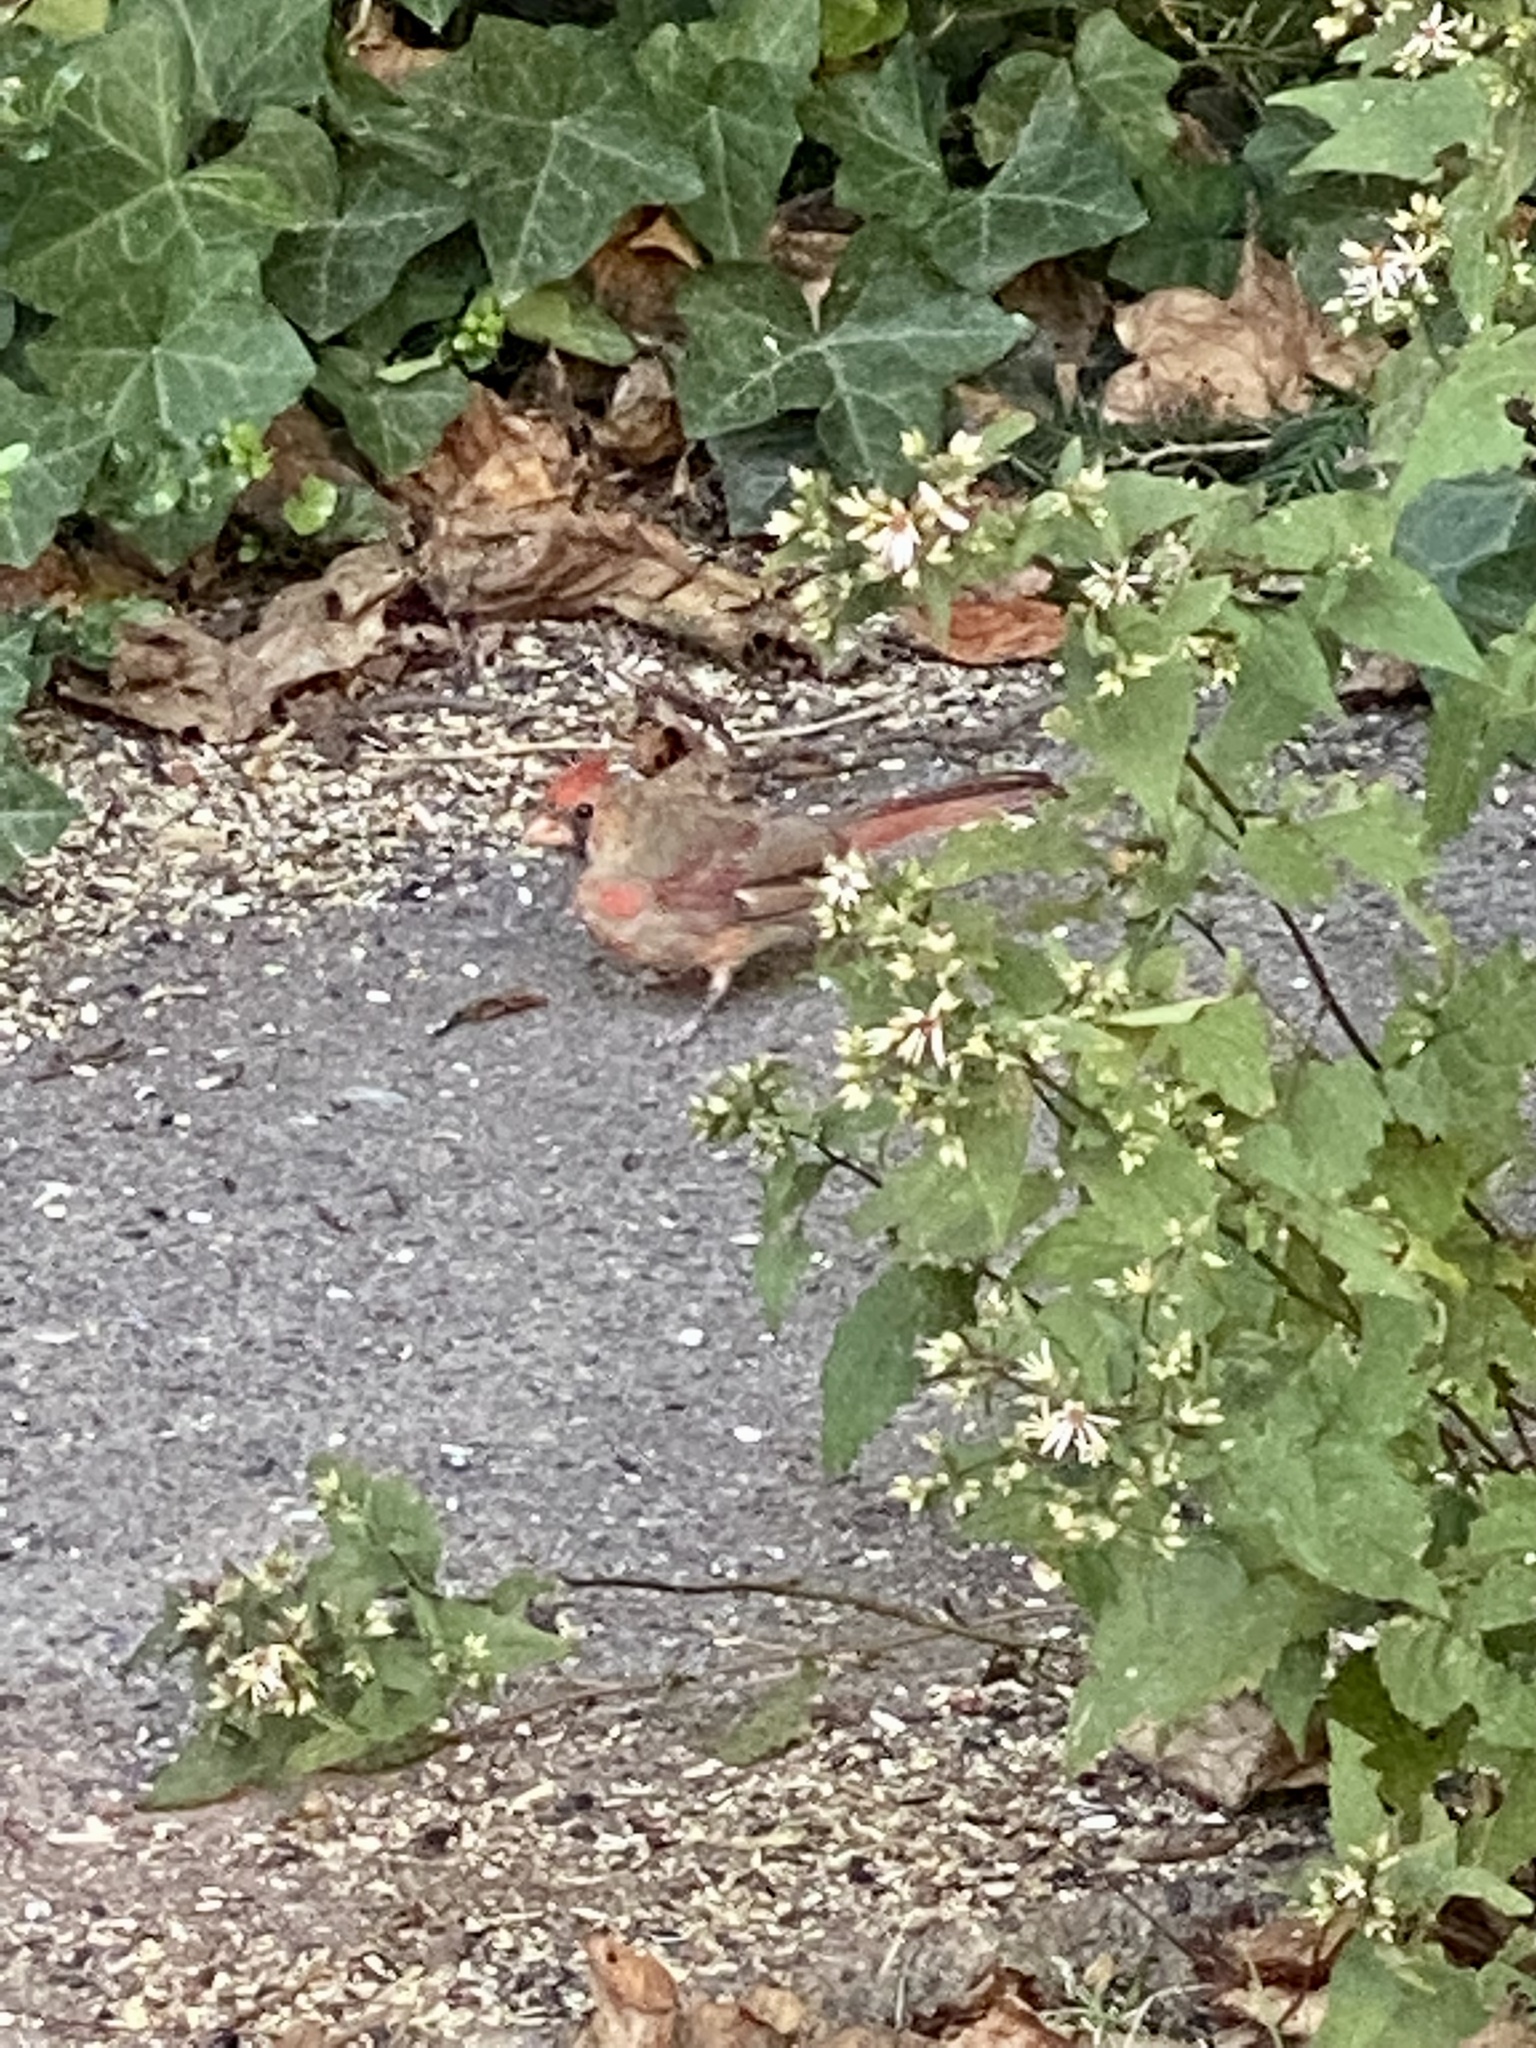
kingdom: Animalia
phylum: Chordata
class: Aves
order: Passeriformes
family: Cardinalidae
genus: Cardinalis
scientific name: Cardinalis cardinalis
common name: Northern cardinal
